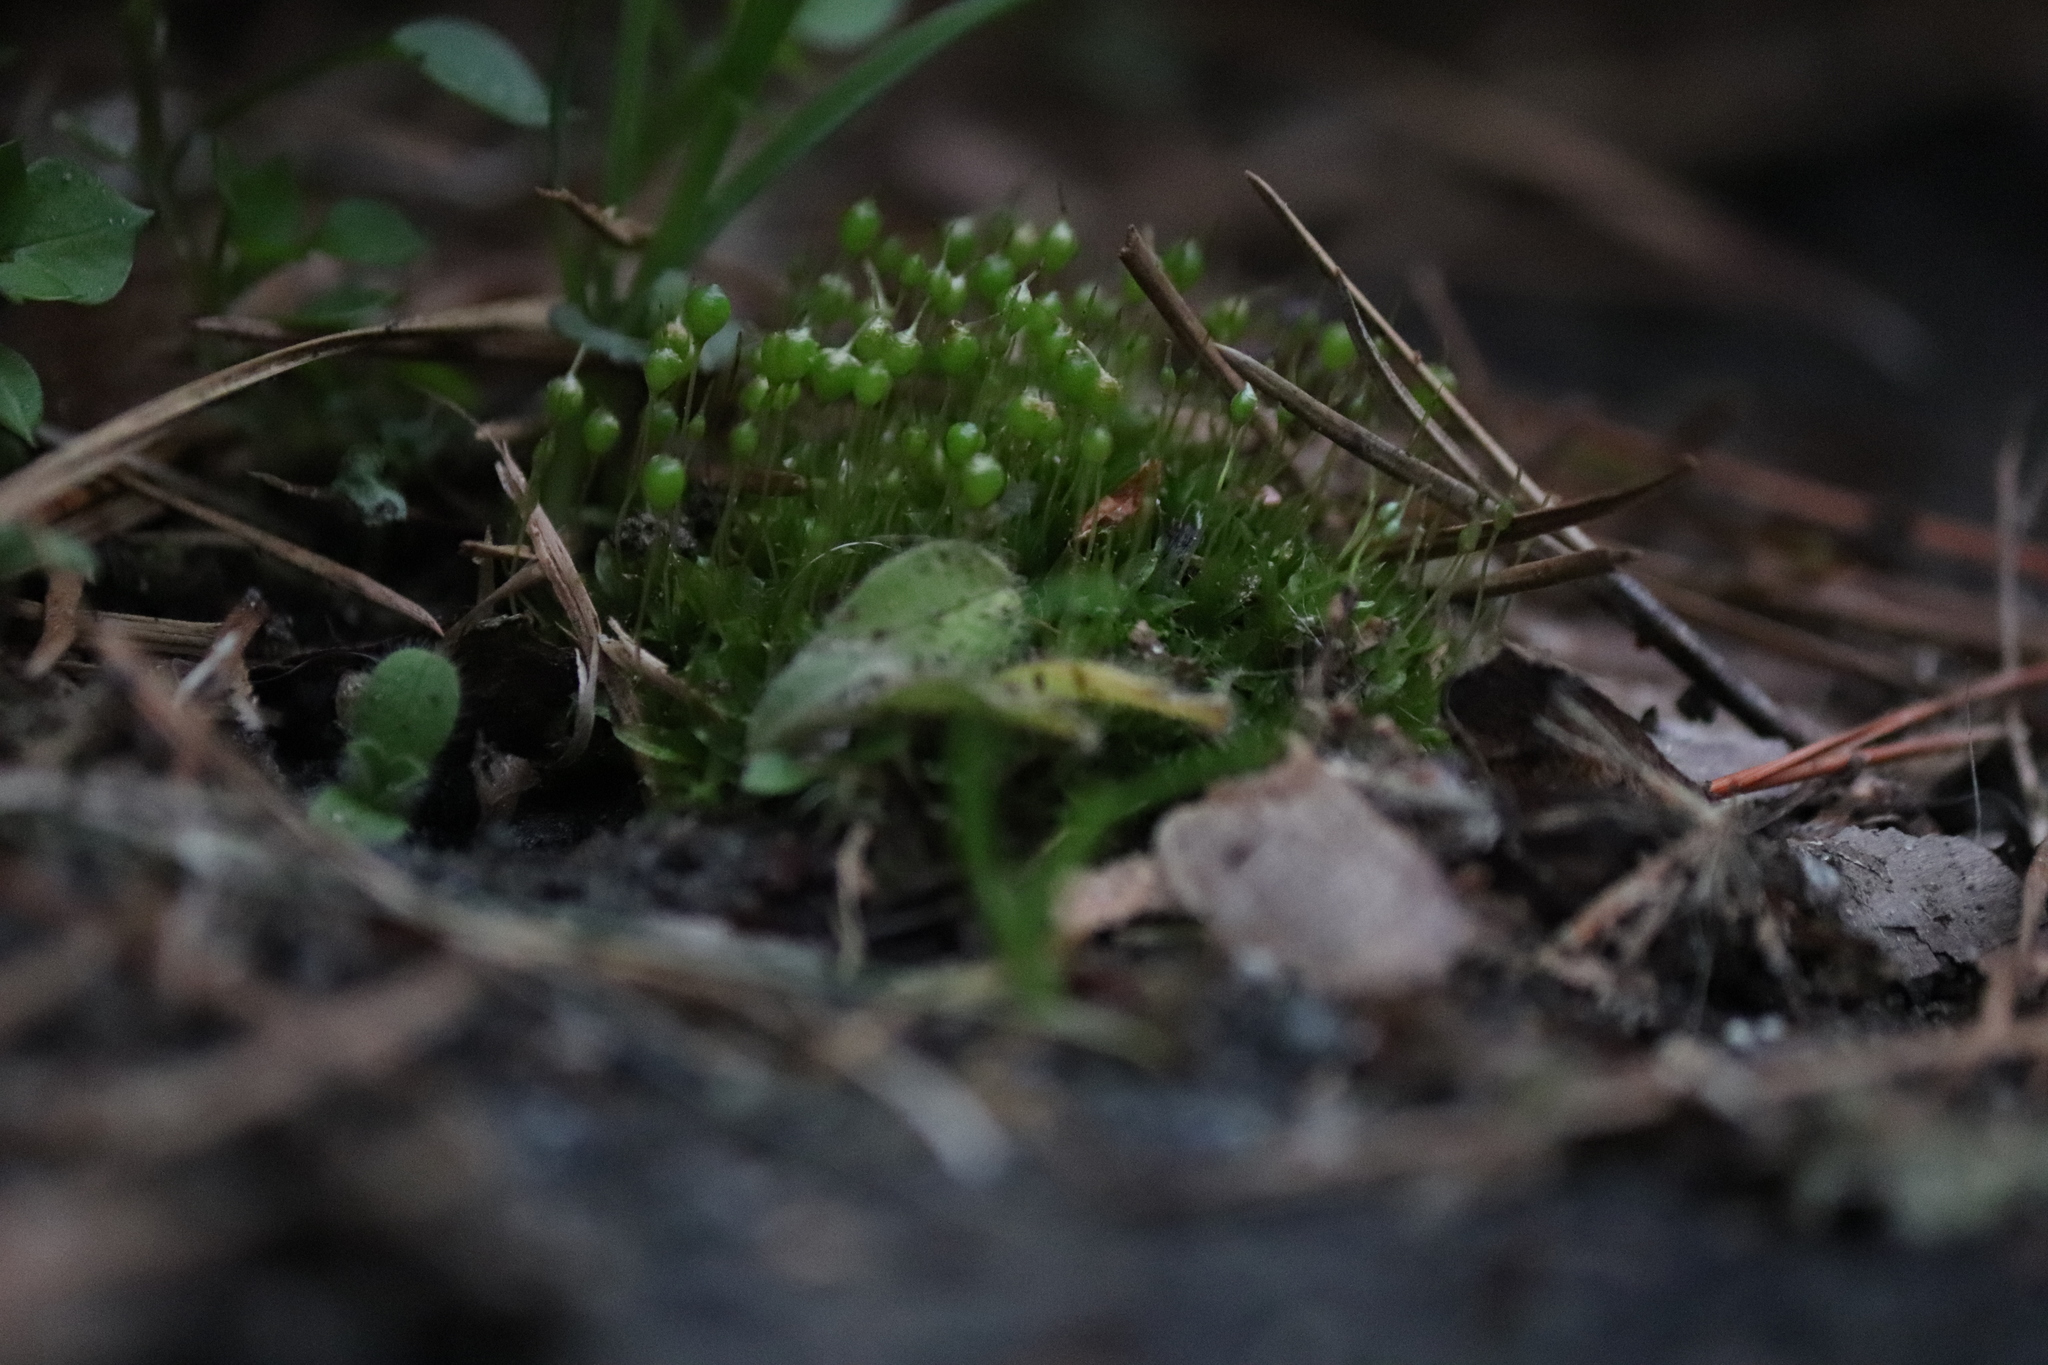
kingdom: Plantae
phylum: Bryophyta
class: Bryopsida
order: Funariales
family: Funariaceae
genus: Physcomitrium
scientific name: Physcomitrium pyriforme
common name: Common bladder-moss
